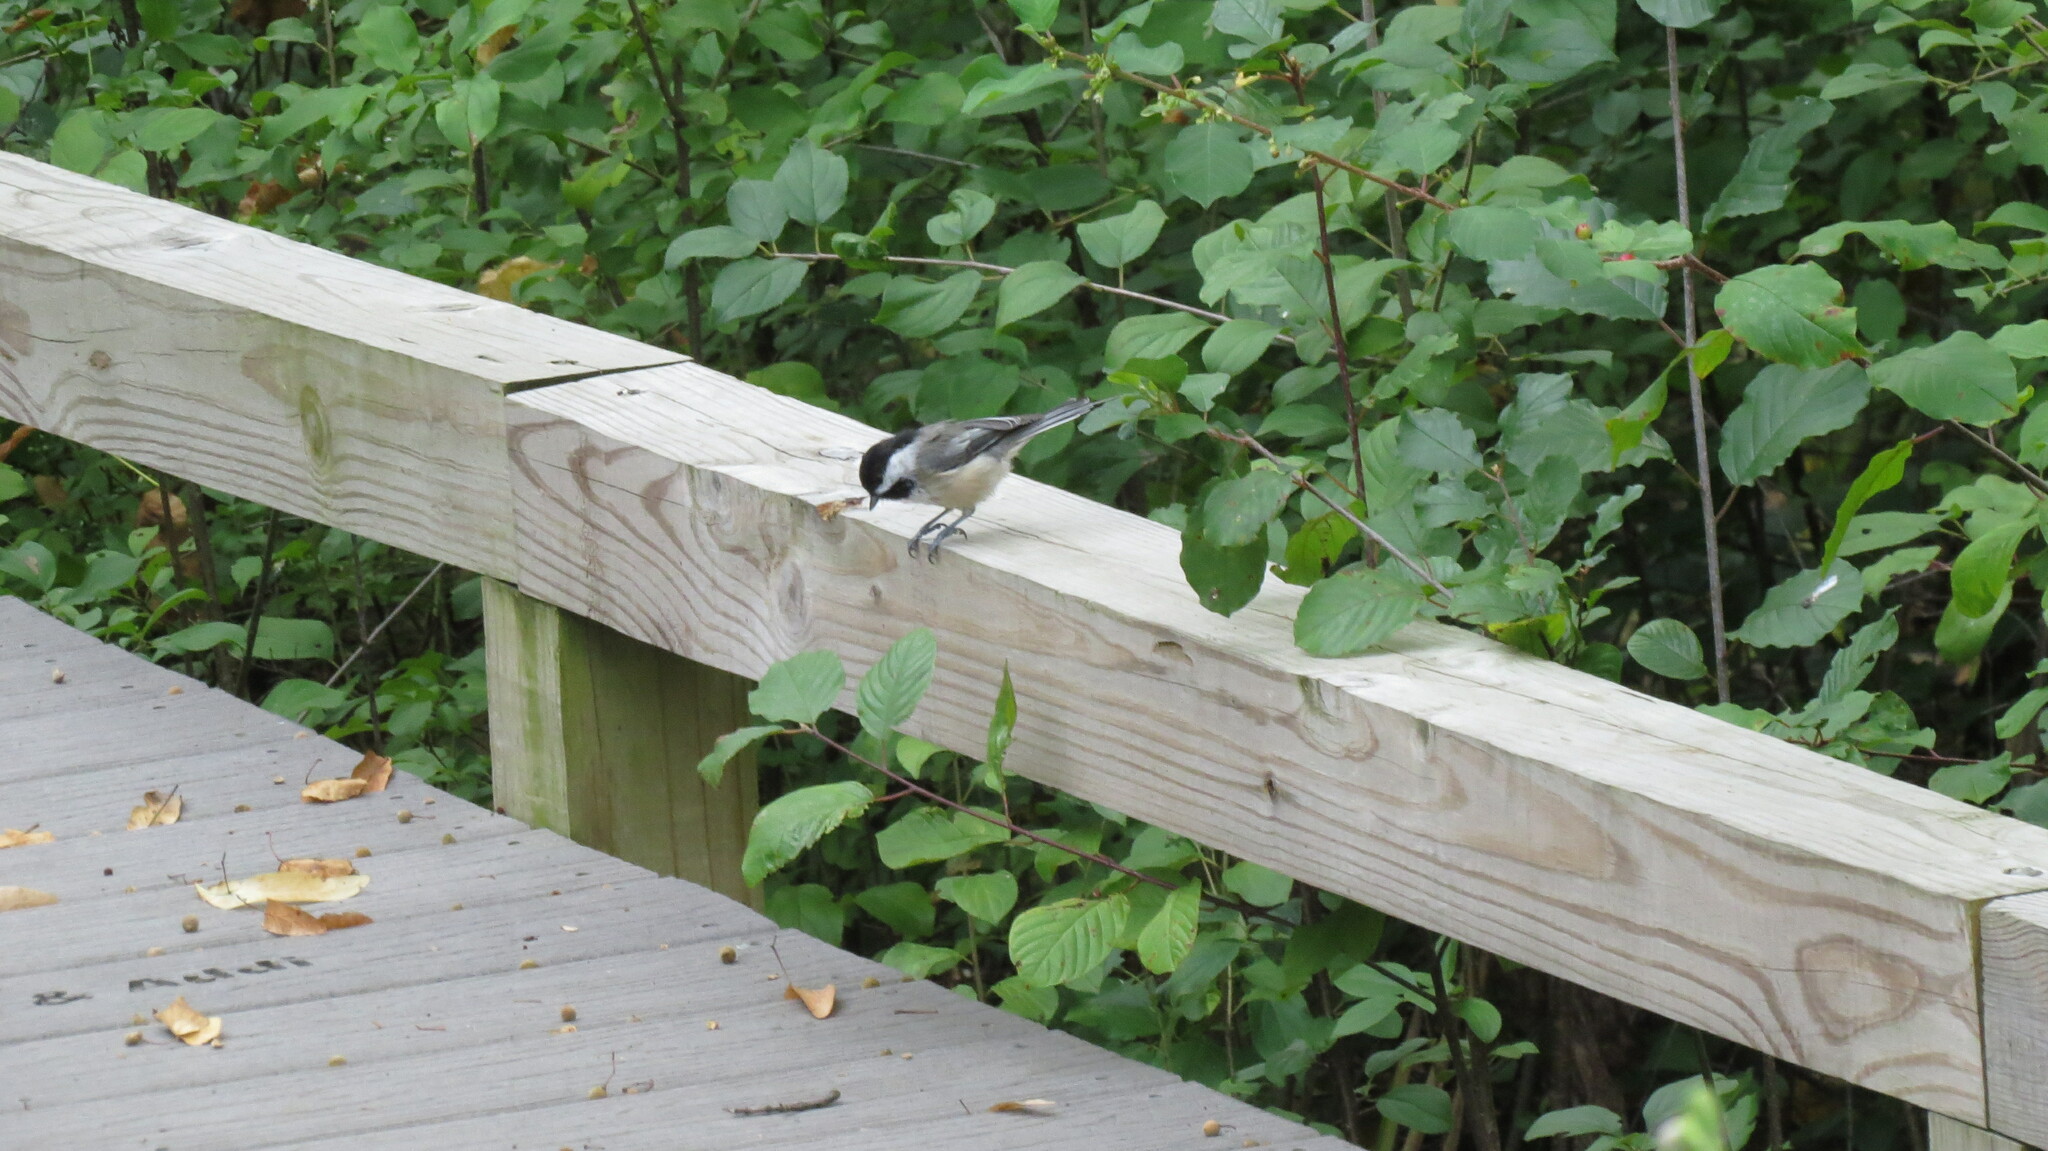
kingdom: Animalia
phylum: Chordata
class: Aves
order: Passeriformes
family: Paridae
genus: Poecile
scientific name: Poecile atricapillus
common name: Black-capped chickadee
